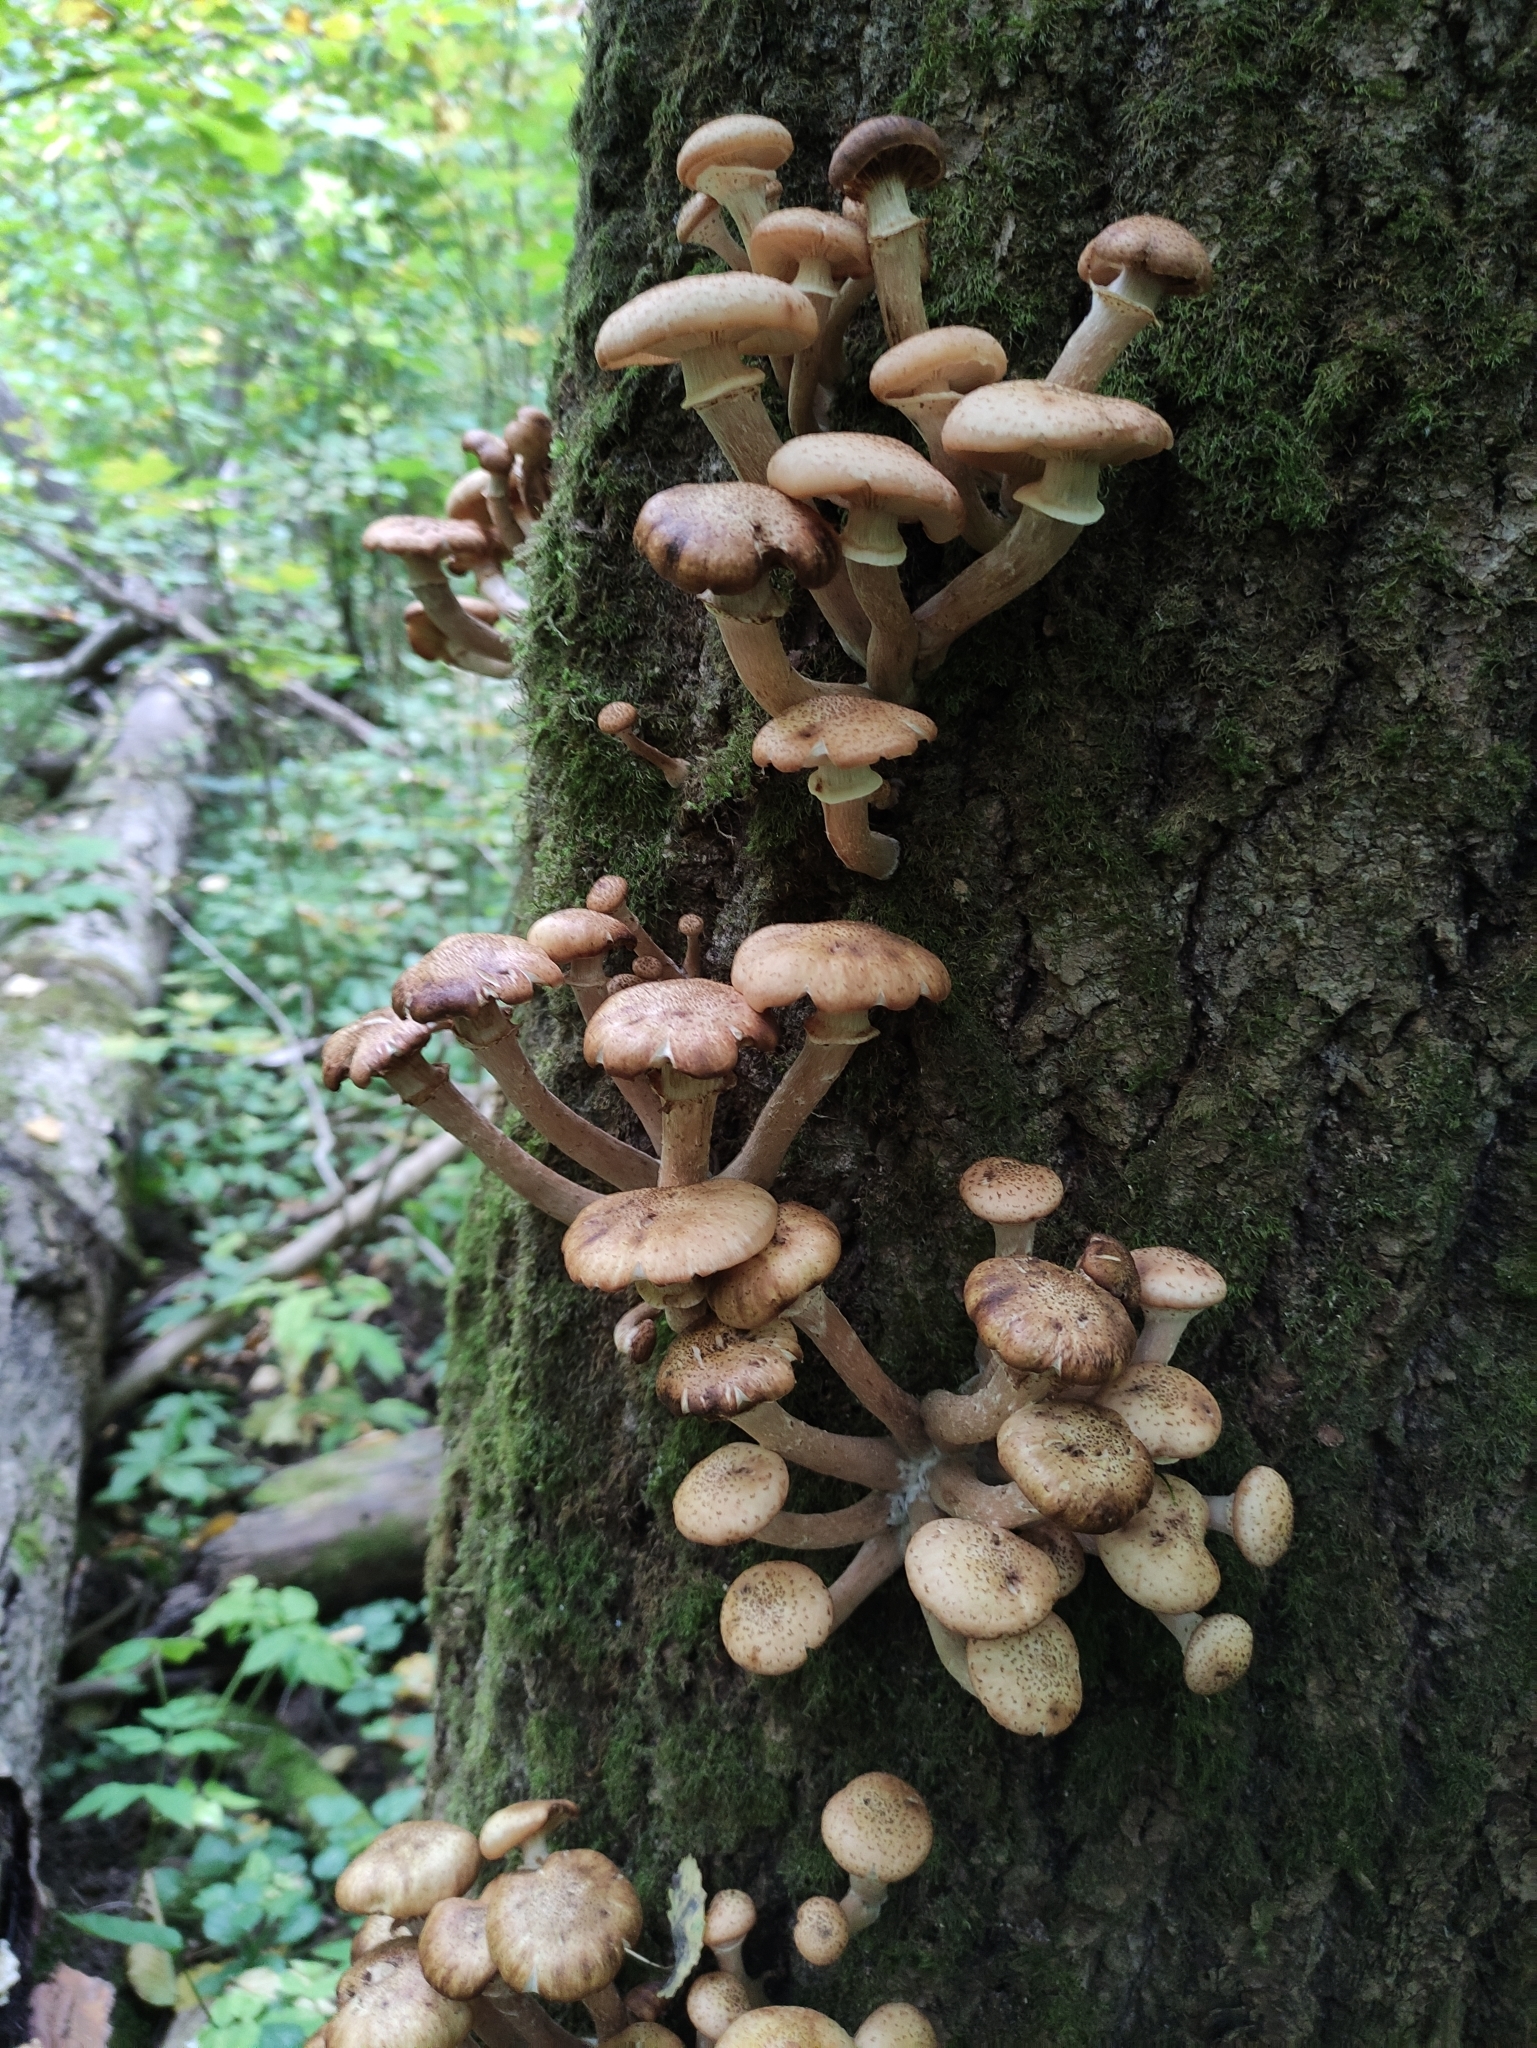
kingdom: Fungi
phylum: Basidiomycota
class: Agaricomycetes
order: Agaricales
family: Physalacriaceae
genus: Armillaria
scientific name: Armillaria borealis
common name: Northern honey fungus
